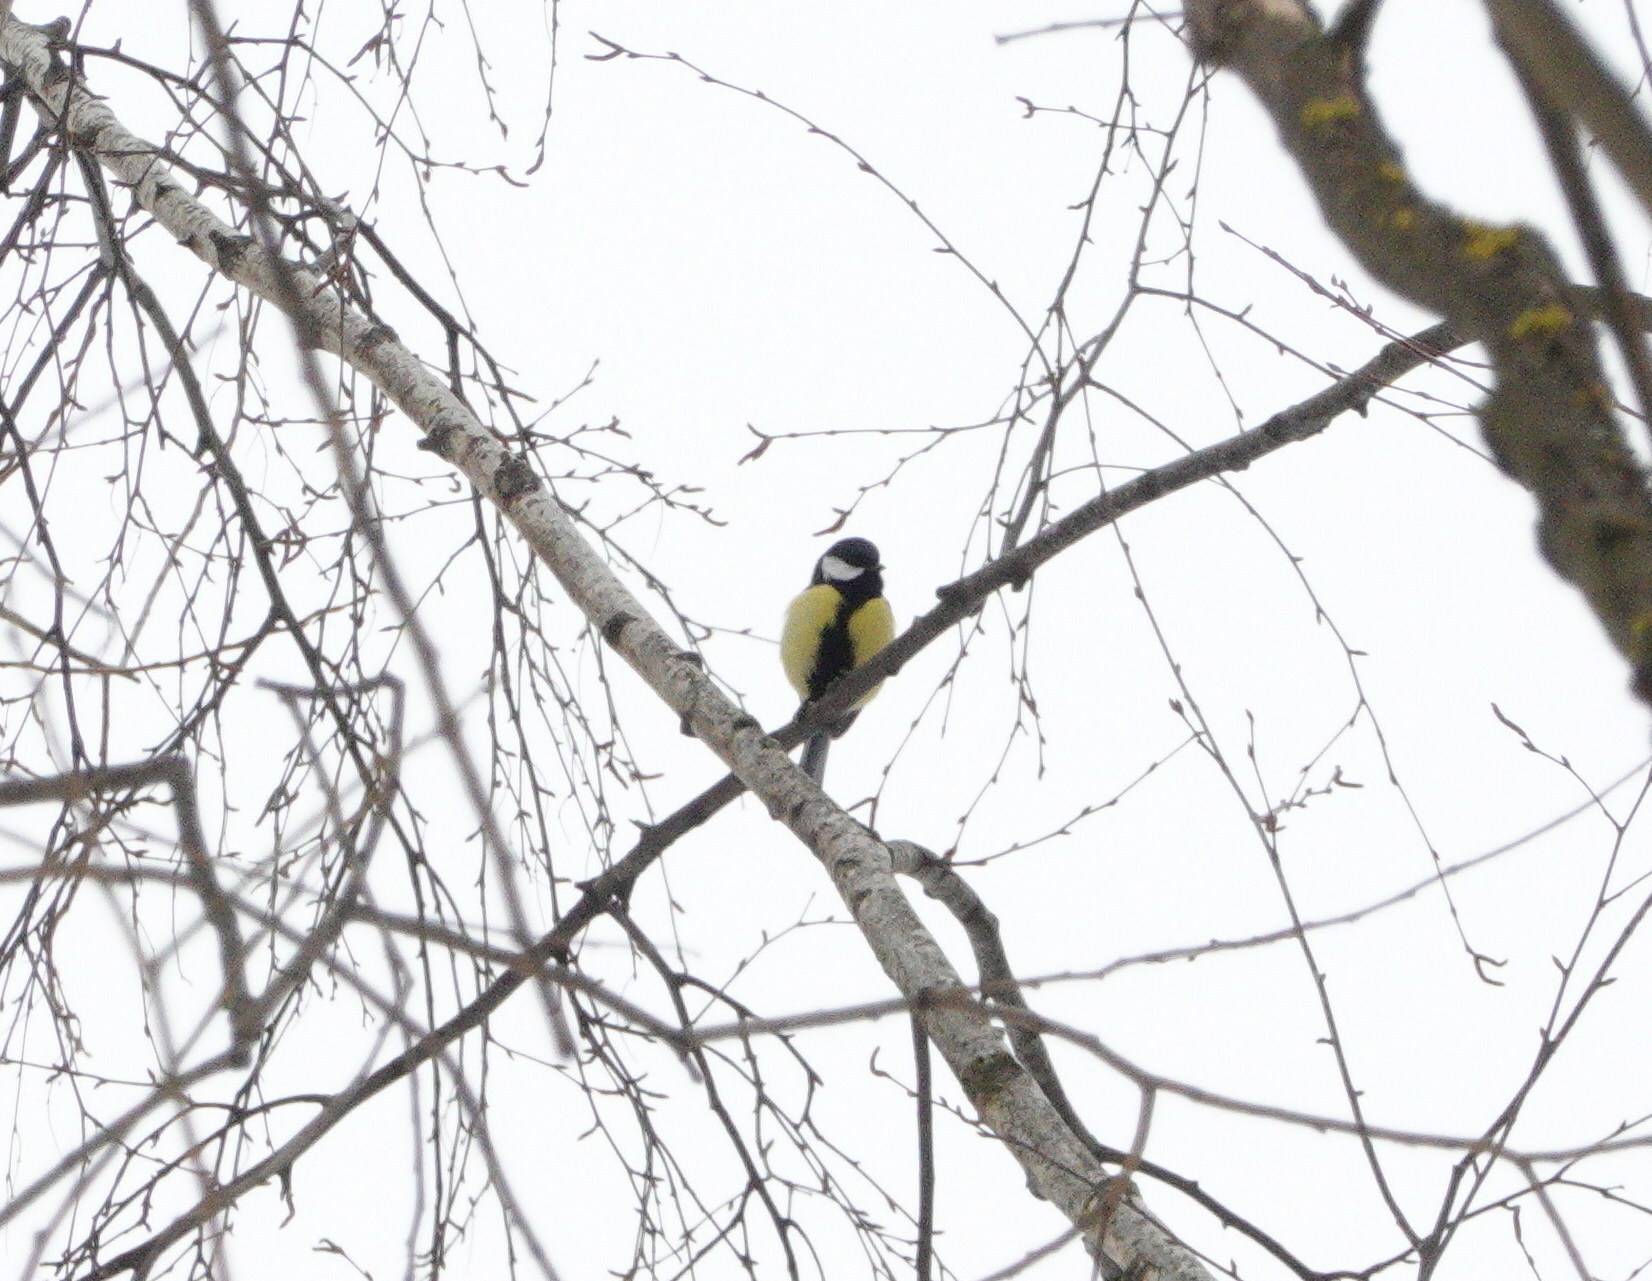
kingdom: Animalia
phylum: Chordata
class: Aves
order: Passeriformes
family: Paridae
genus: Parus
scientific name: Parus major
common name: Great tit
